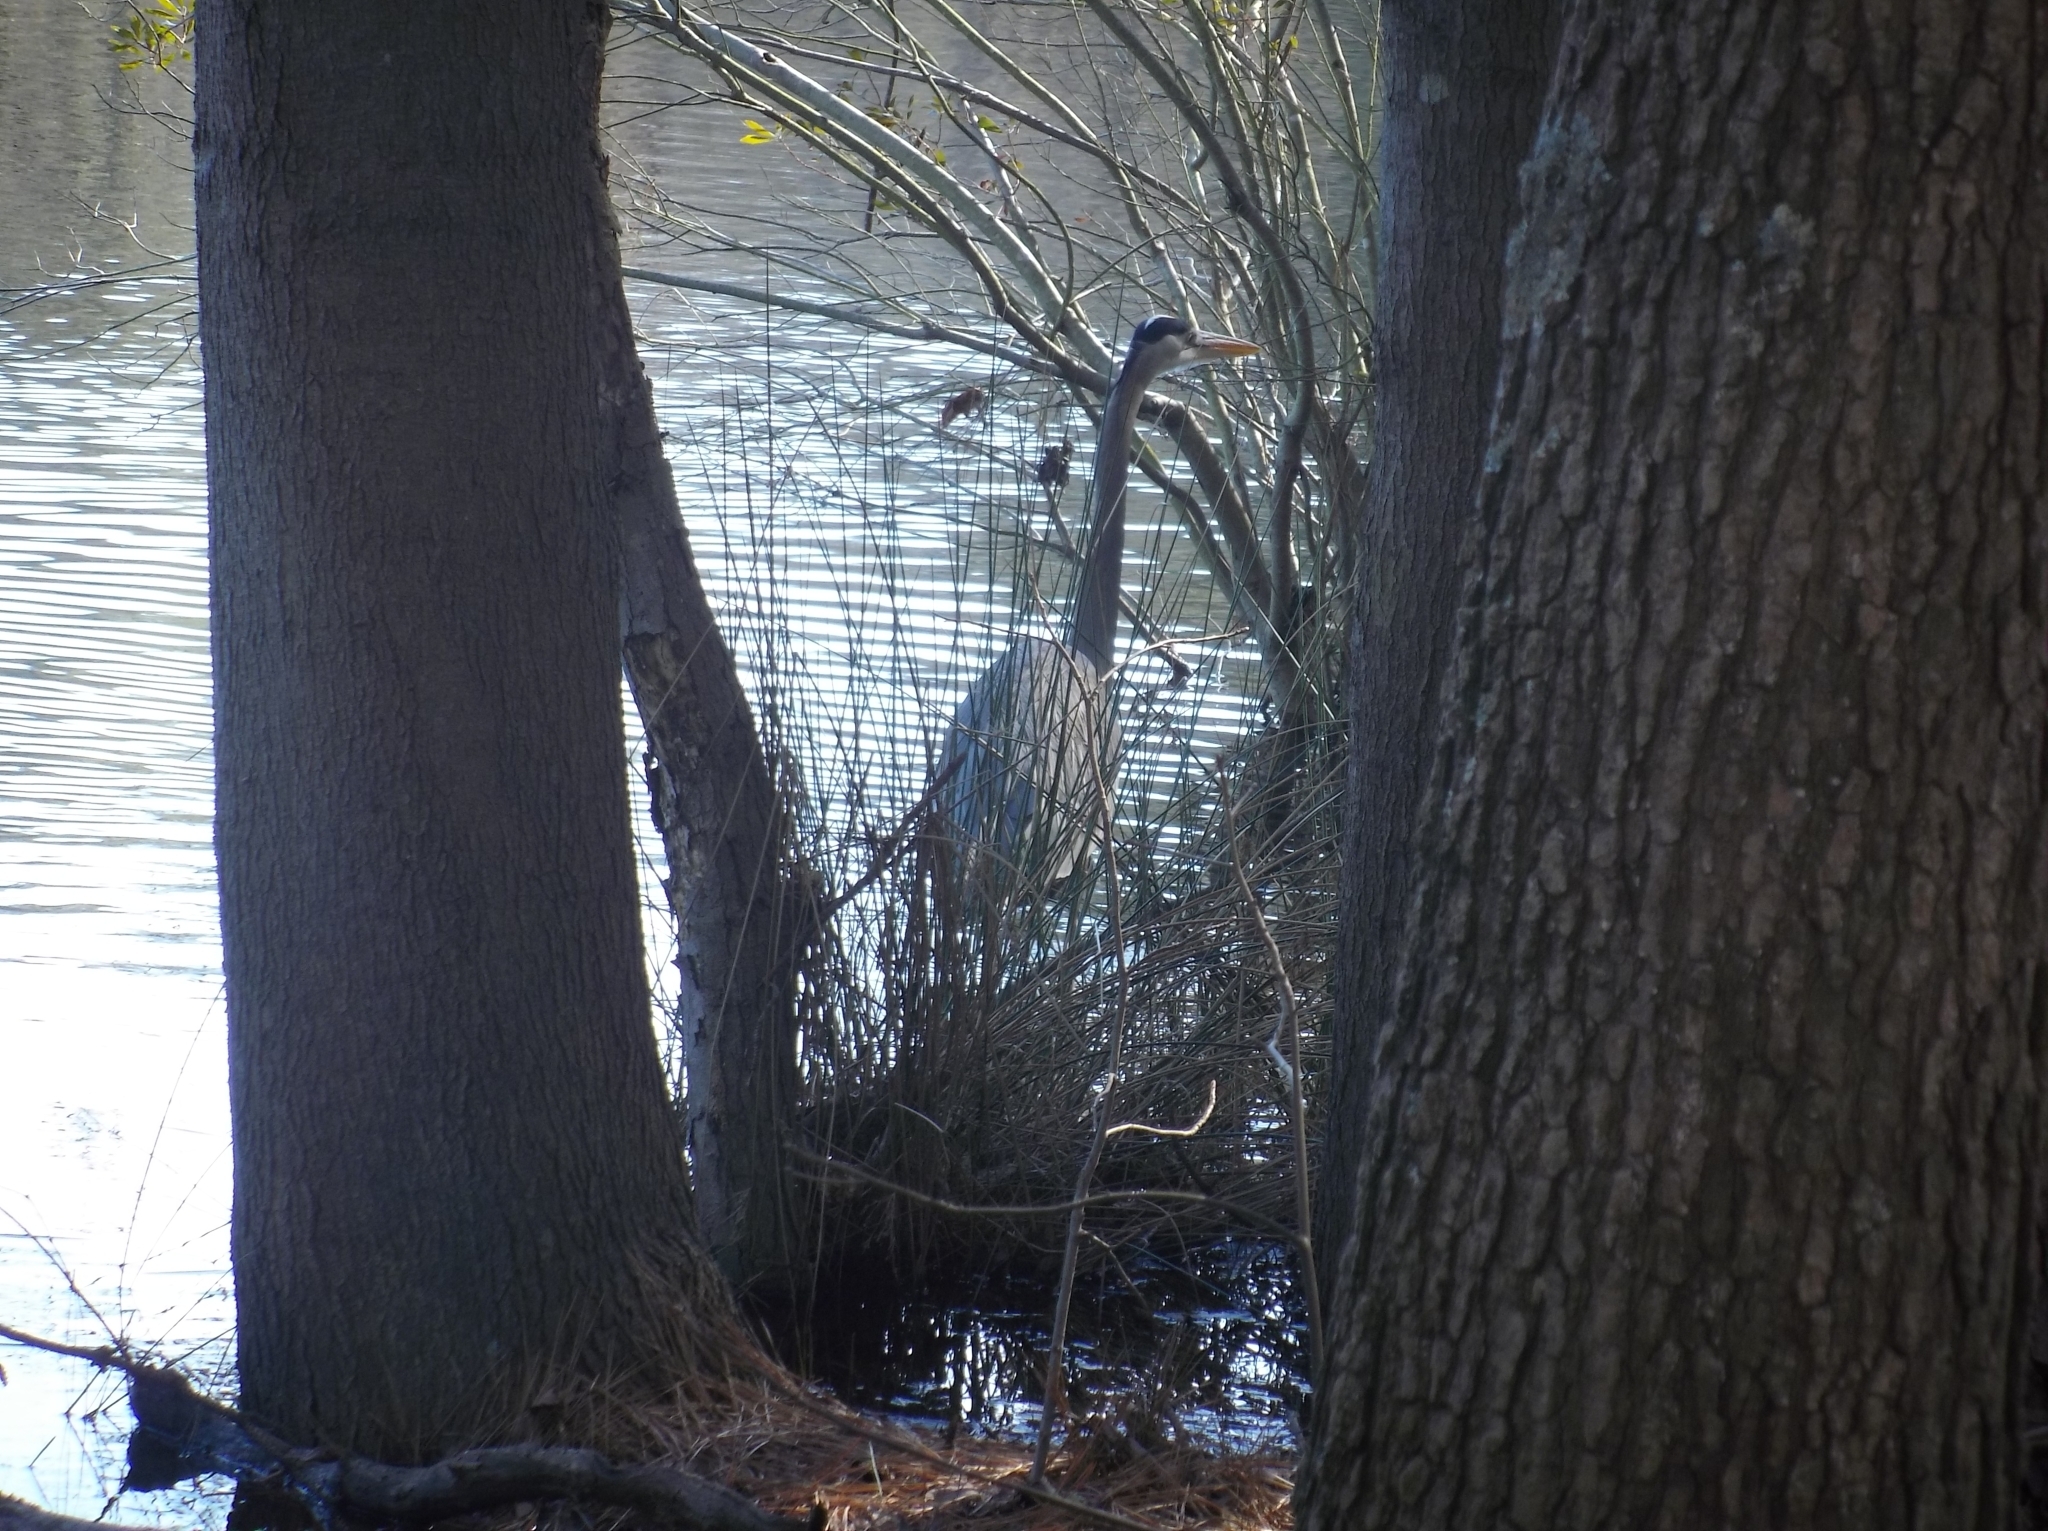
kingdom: Animalia
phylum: Chordata
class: Aves
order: Pelecaniformes
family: Ardeidae
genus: Ardea
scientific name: Ardea herodias
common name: Great blue heron
